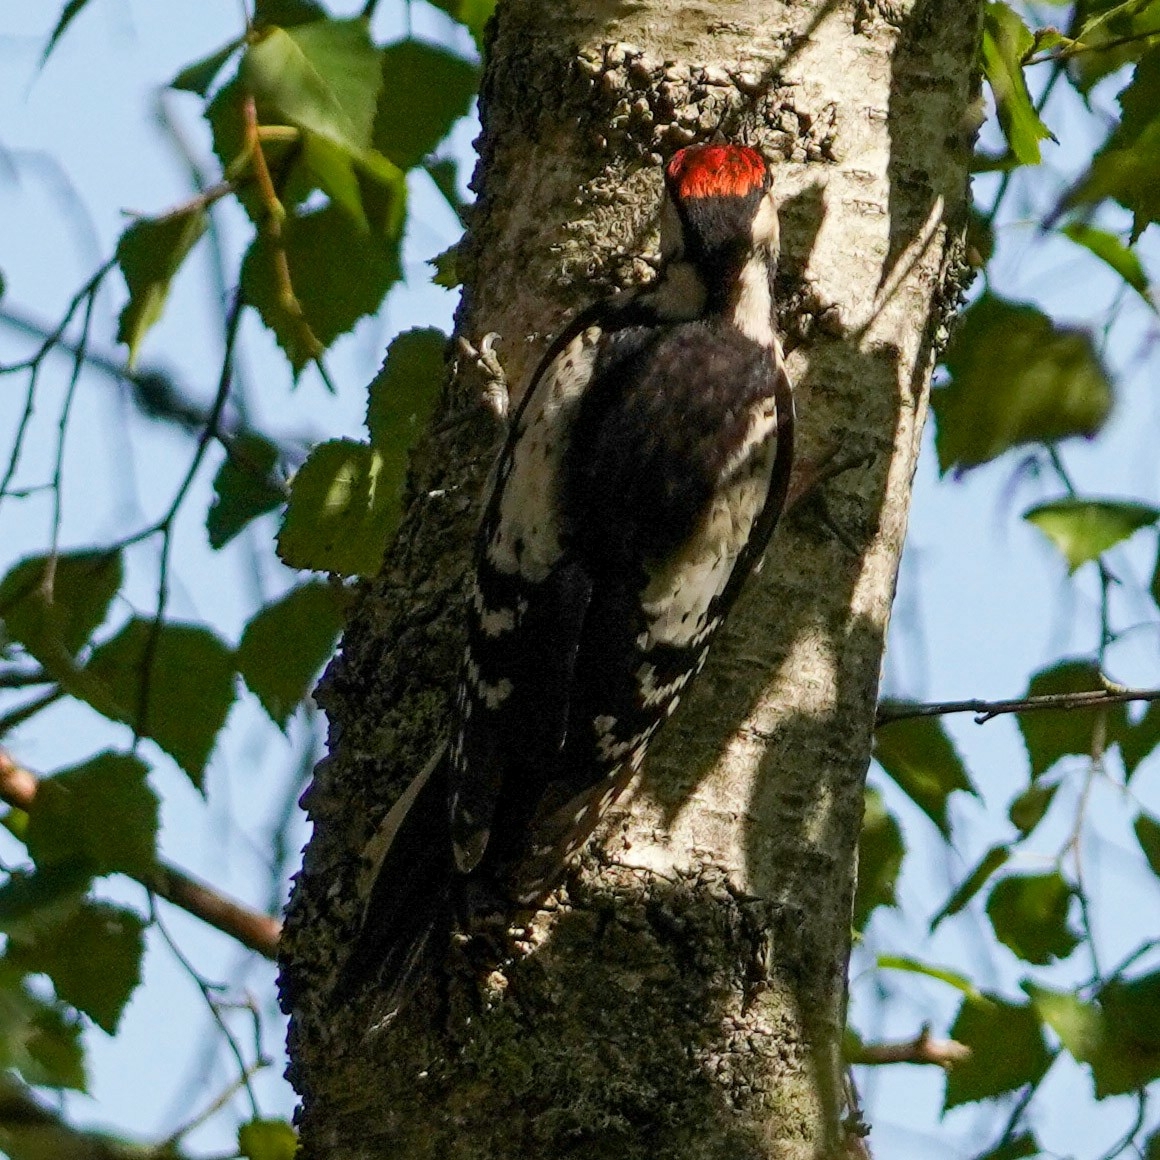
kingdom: Animalia
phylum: Chordata
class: Aves
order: Piciformes
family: Picidae
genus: Dendrocopos
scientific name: Dendrocopos major
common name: Great spotted woodpecker
